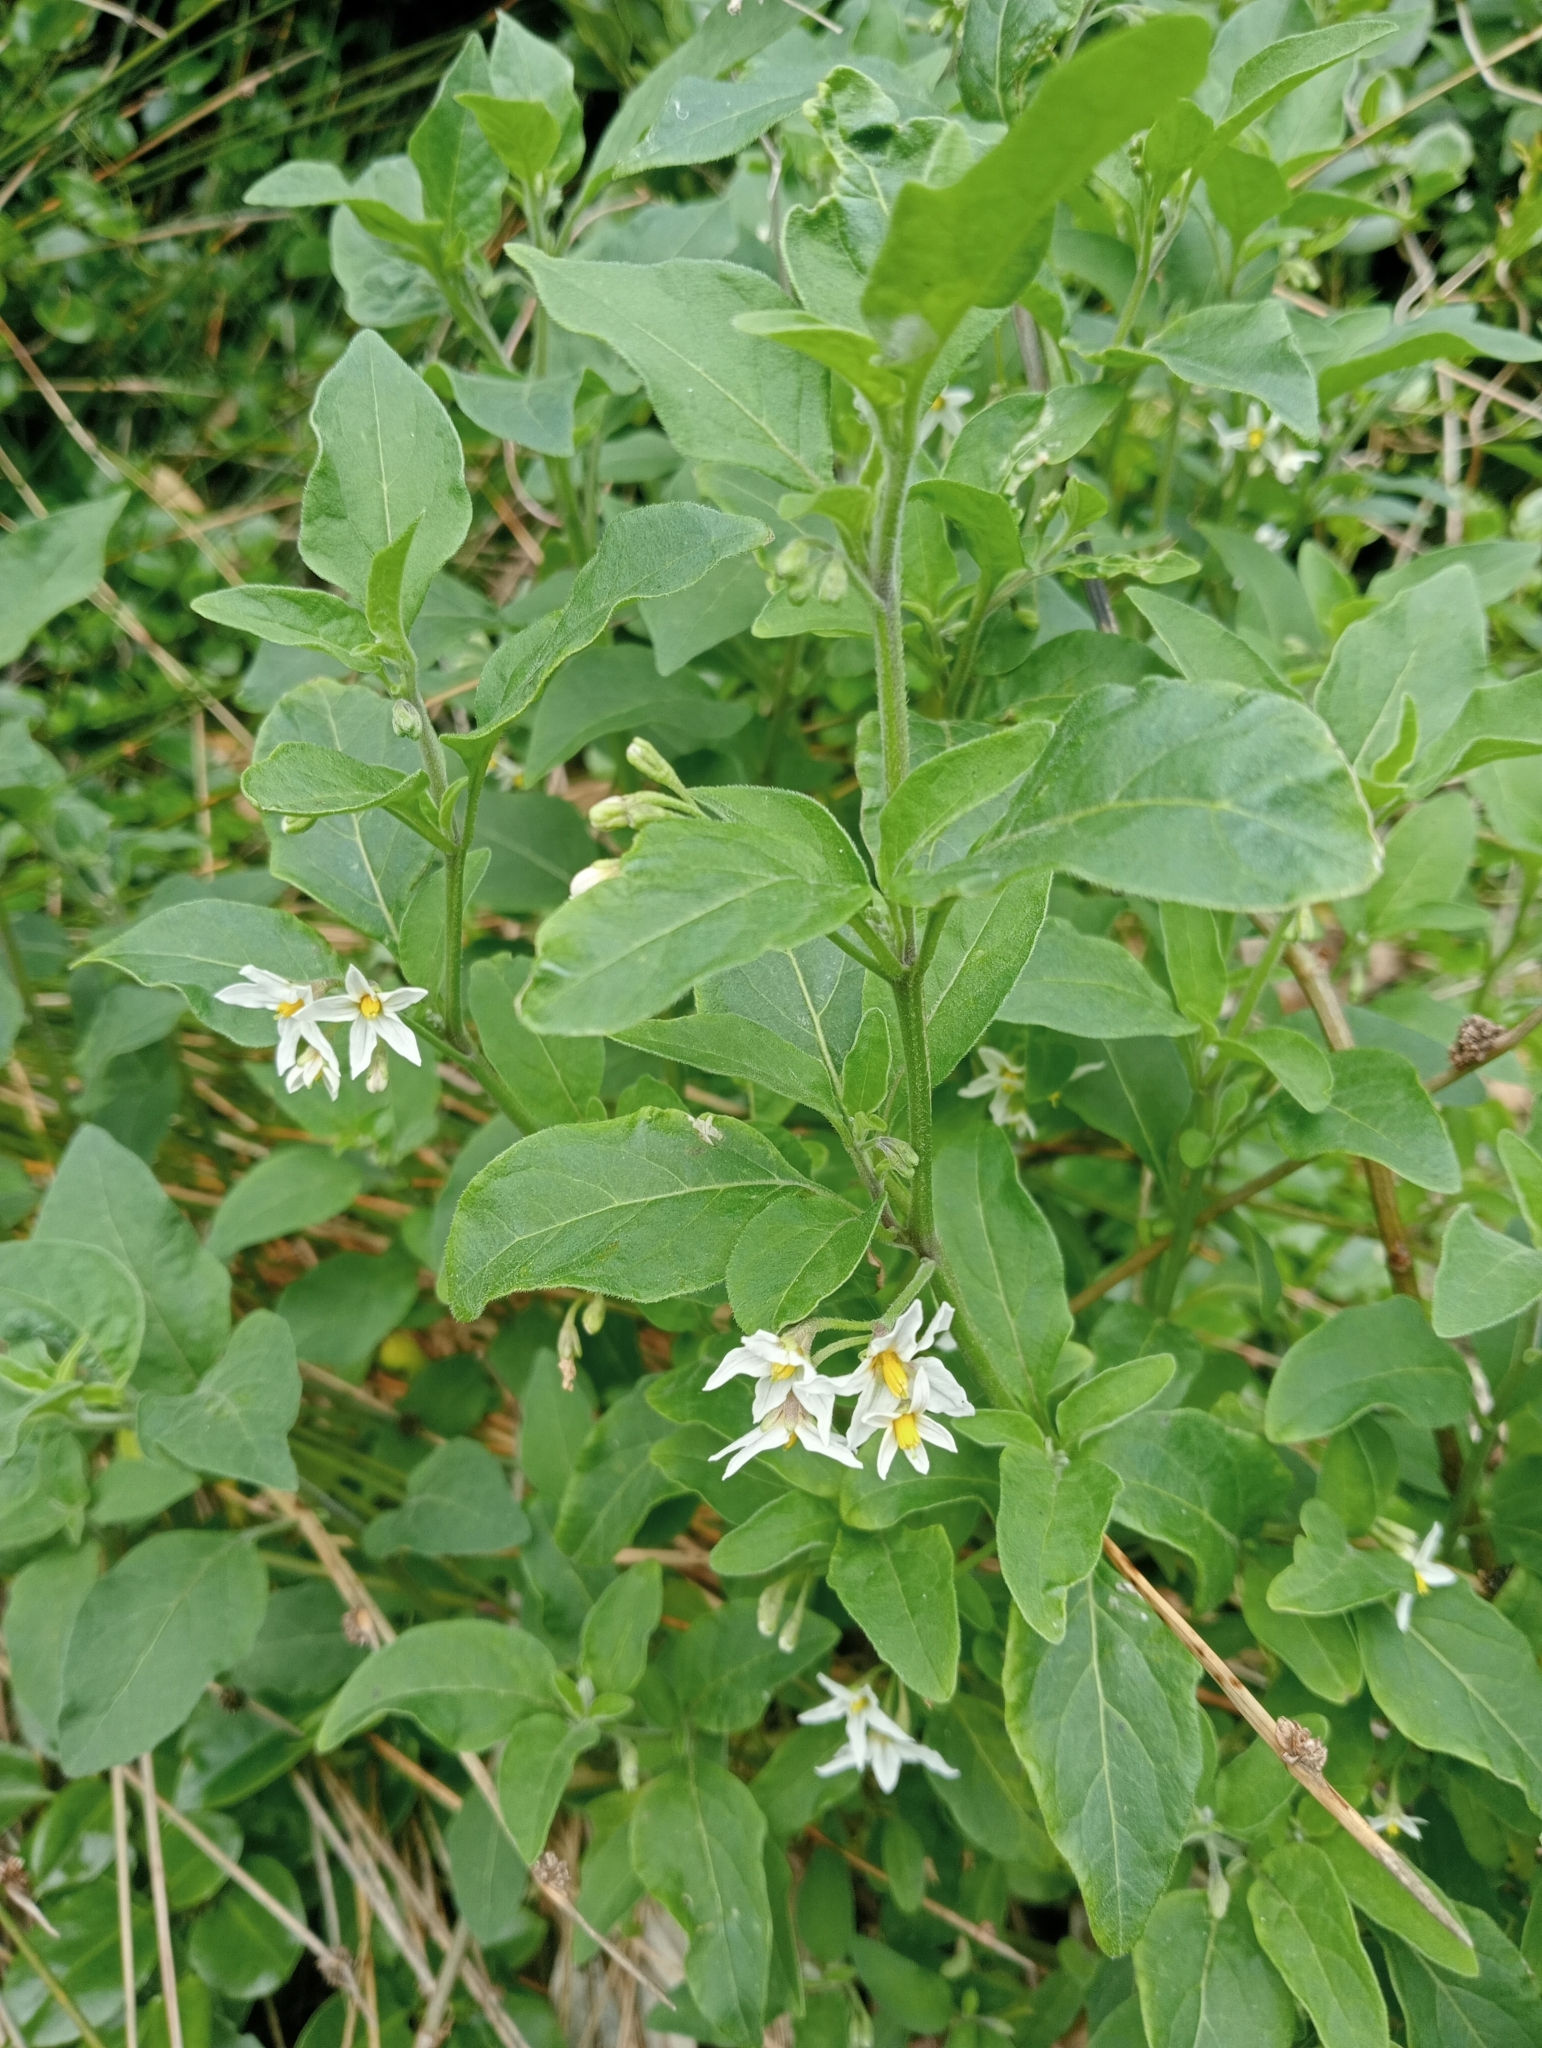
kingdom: Plantae
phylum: Tracheophyta
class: Magnoliopsida
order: Solanales
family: Solanaceae
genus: Solanum
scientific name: Solanum chenopodioides
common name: Tall nightshade
